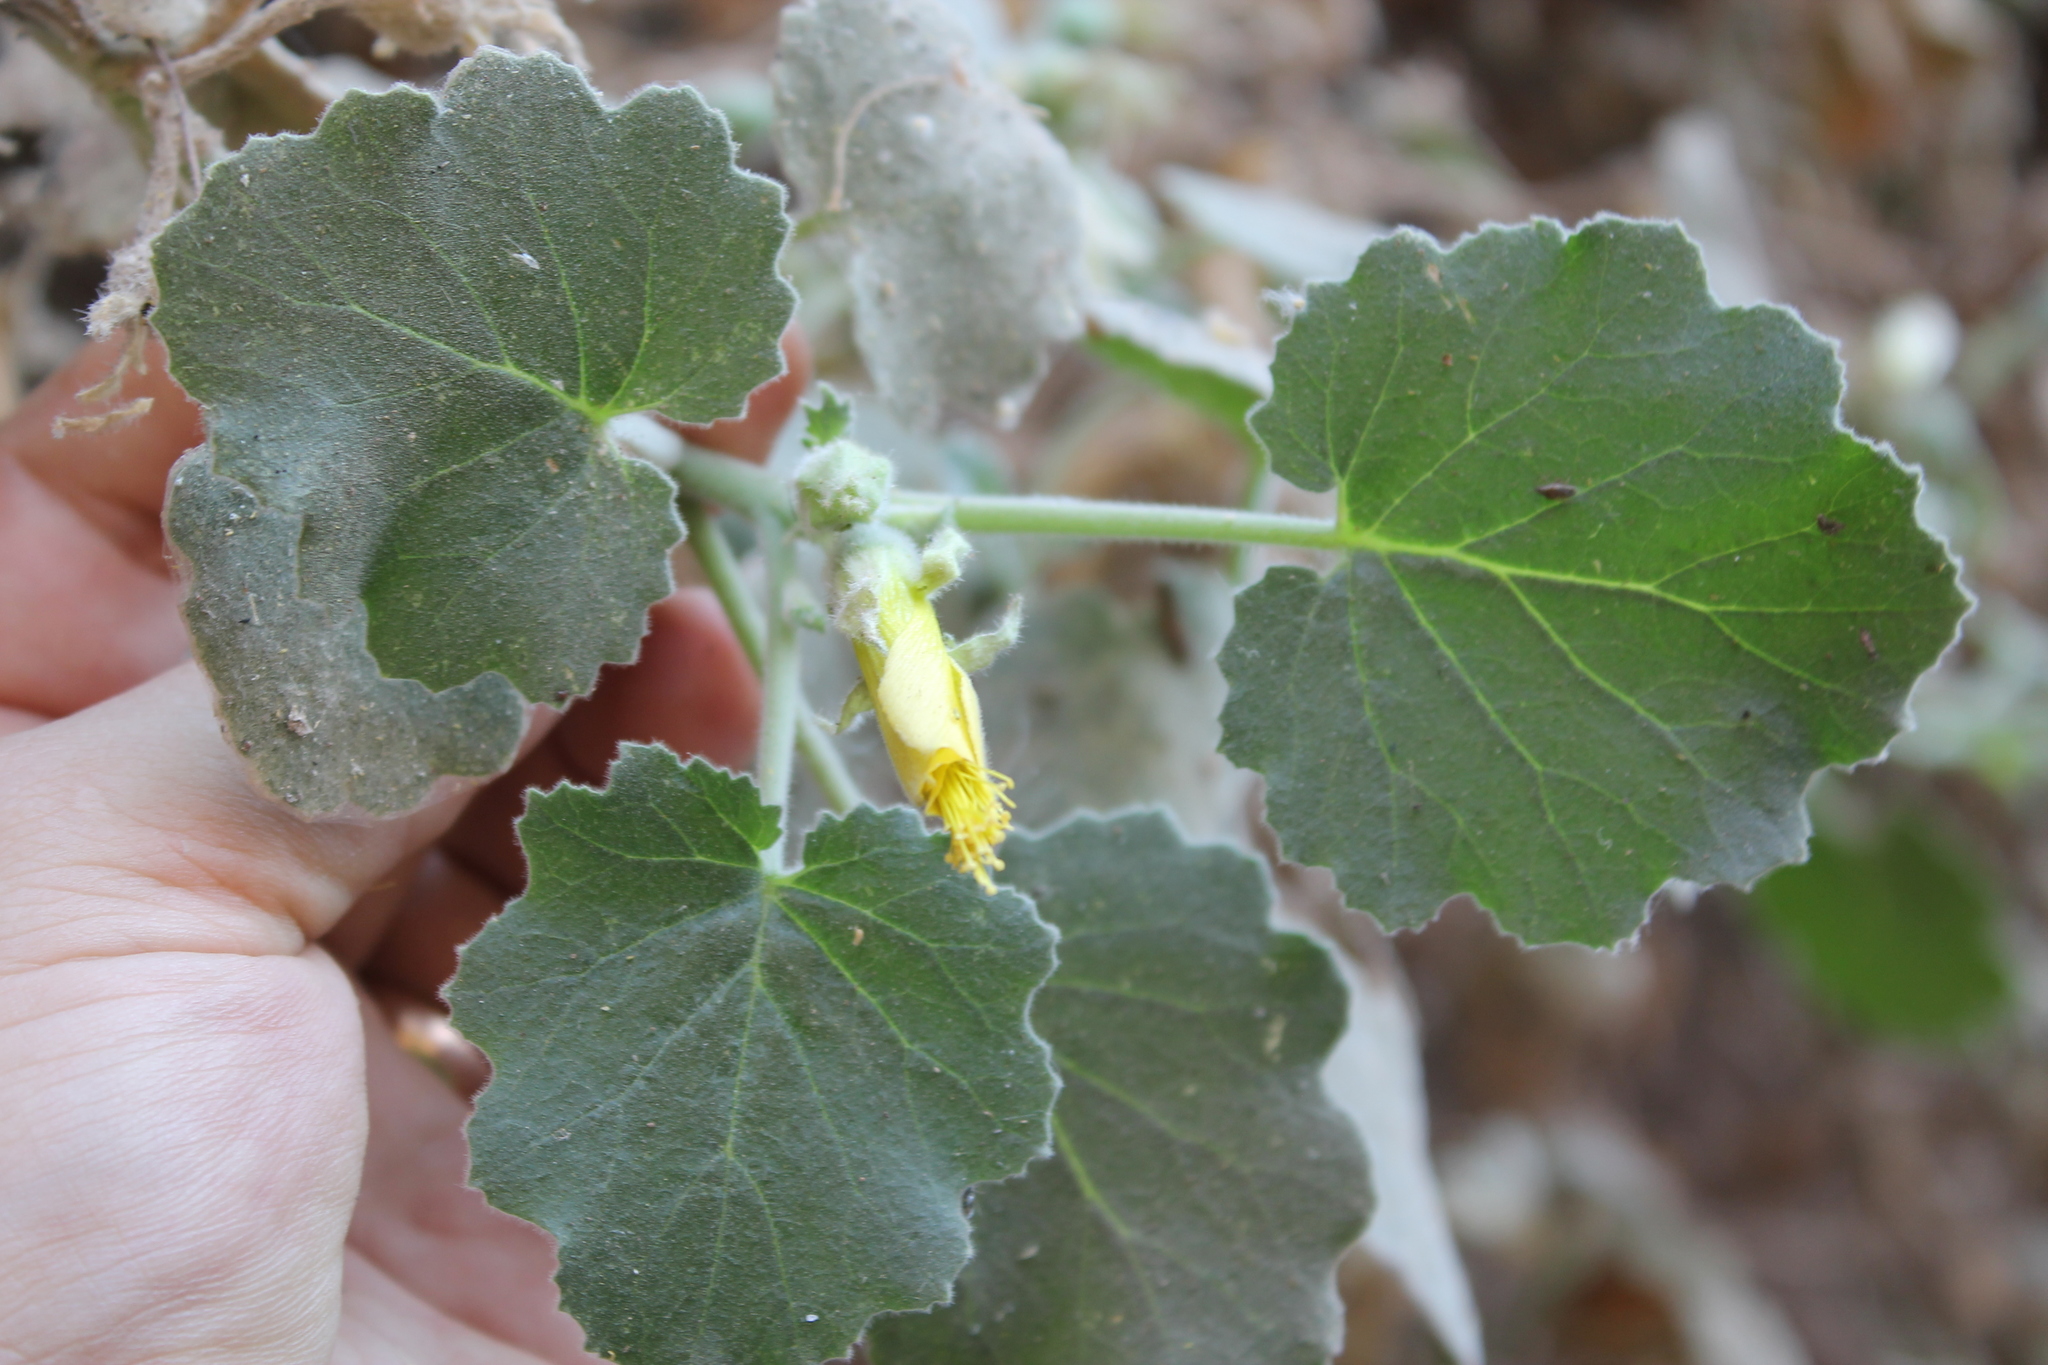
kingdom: Plantae
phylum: Tracheophyta
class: Magnoliopsida
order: Cornales
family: Loasaceae
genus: Eucnide
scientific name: Eucnide hirta
